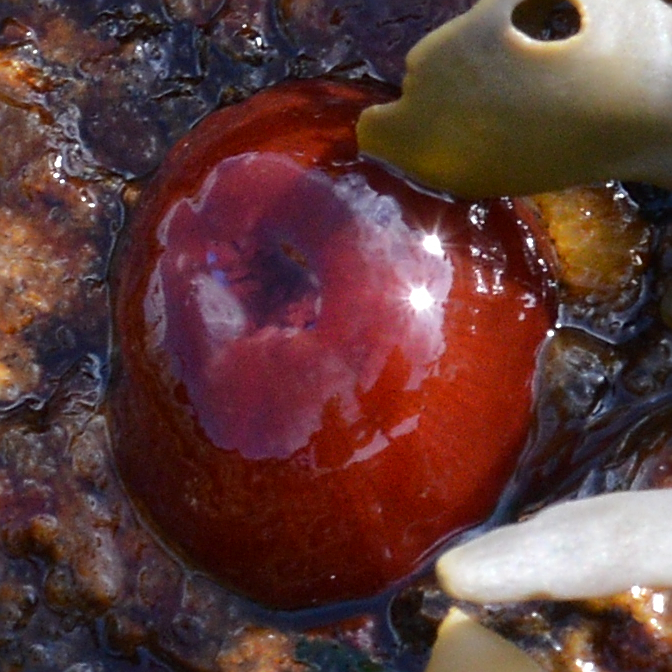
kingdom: Animalia
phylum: Cnidaria
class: Anthozoa
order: Actiniaria
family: Actiniidae
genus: Actinia
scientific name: Actinia equina
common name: Beadlet anemone
